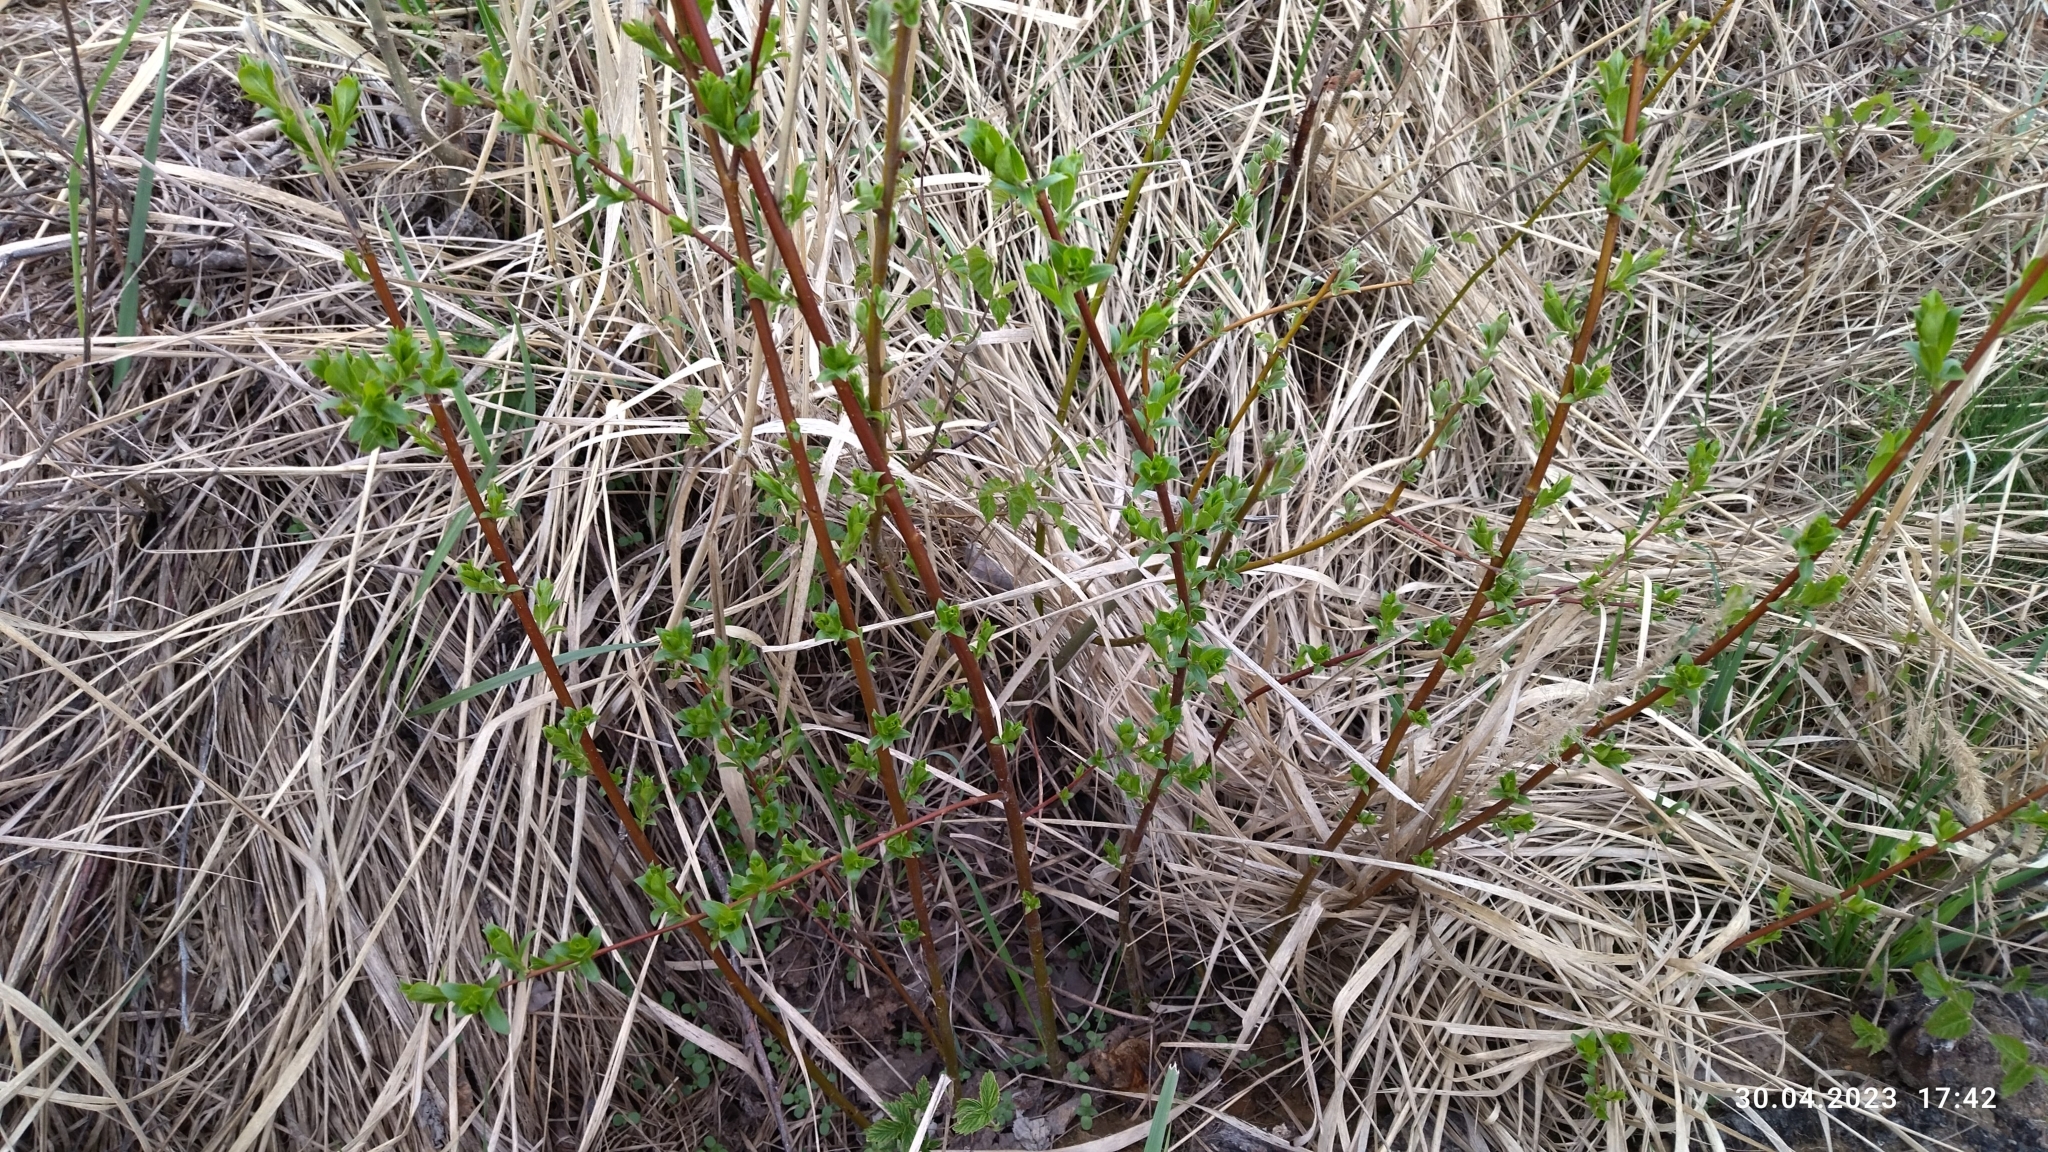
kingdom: Plantae
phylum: Tracheophyta
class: Magnoliopsida
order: Malpighiales
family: Salicaceae
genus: Salix
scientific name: Salix myrsinifolia
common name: Dark-leaved willow
